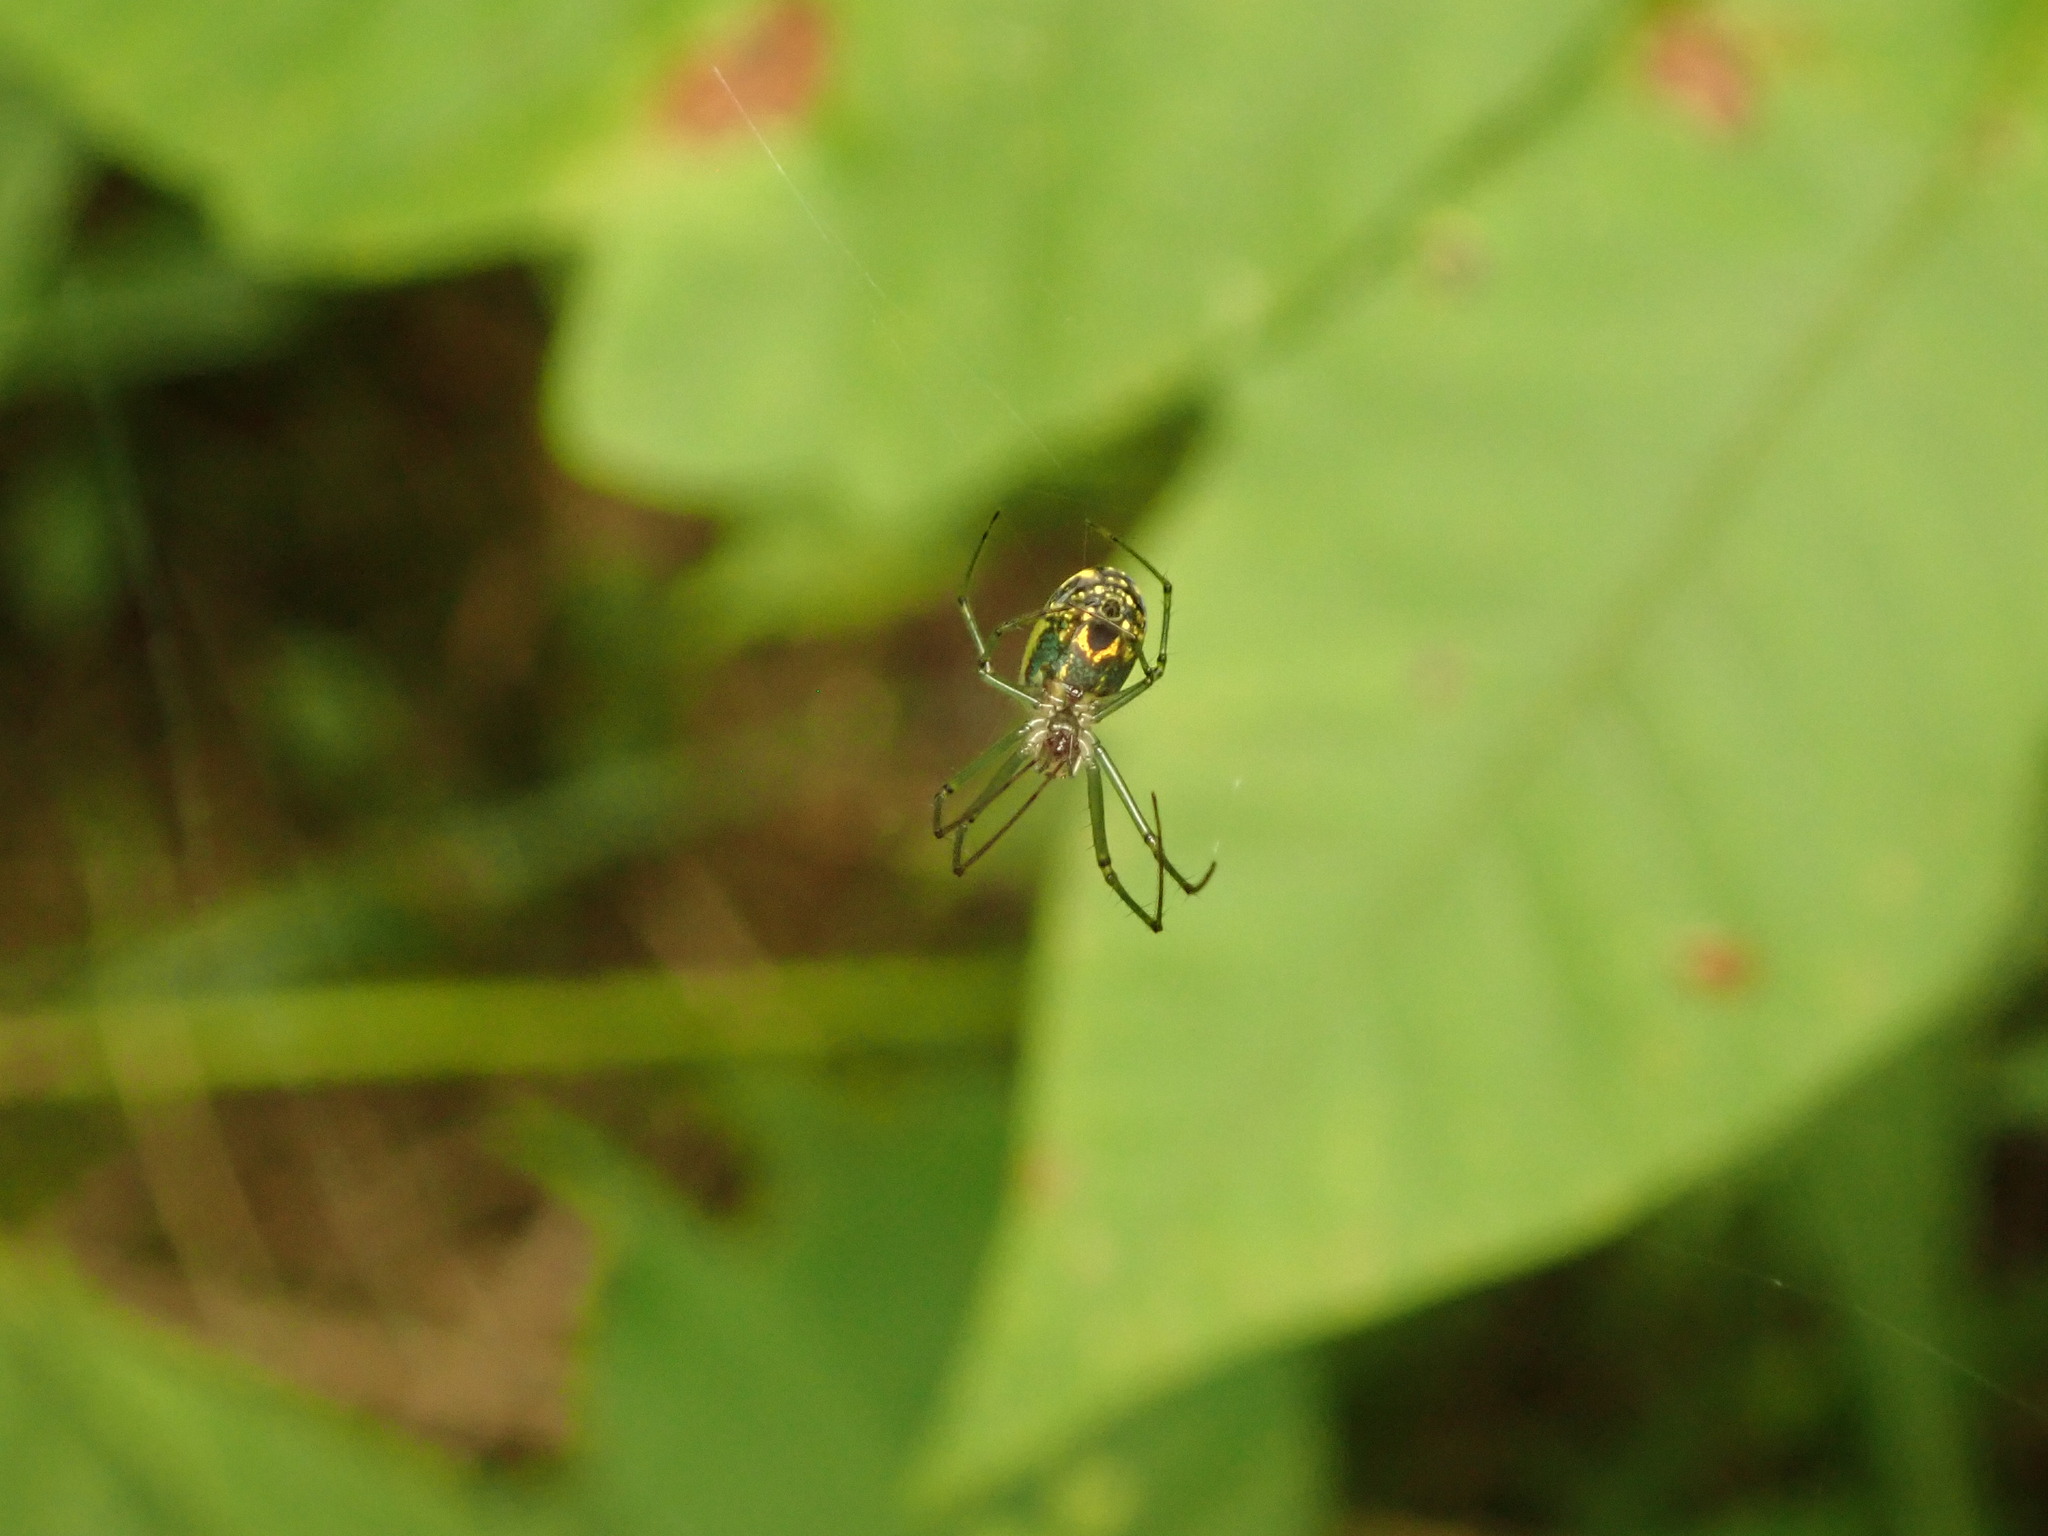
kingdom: Animalia
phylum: Arthropoda
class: Arachnida
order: Araneae
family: Tetragnathidae
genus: Leucauge
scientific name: Leucauge venusta
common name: Longjawed orb weavers
